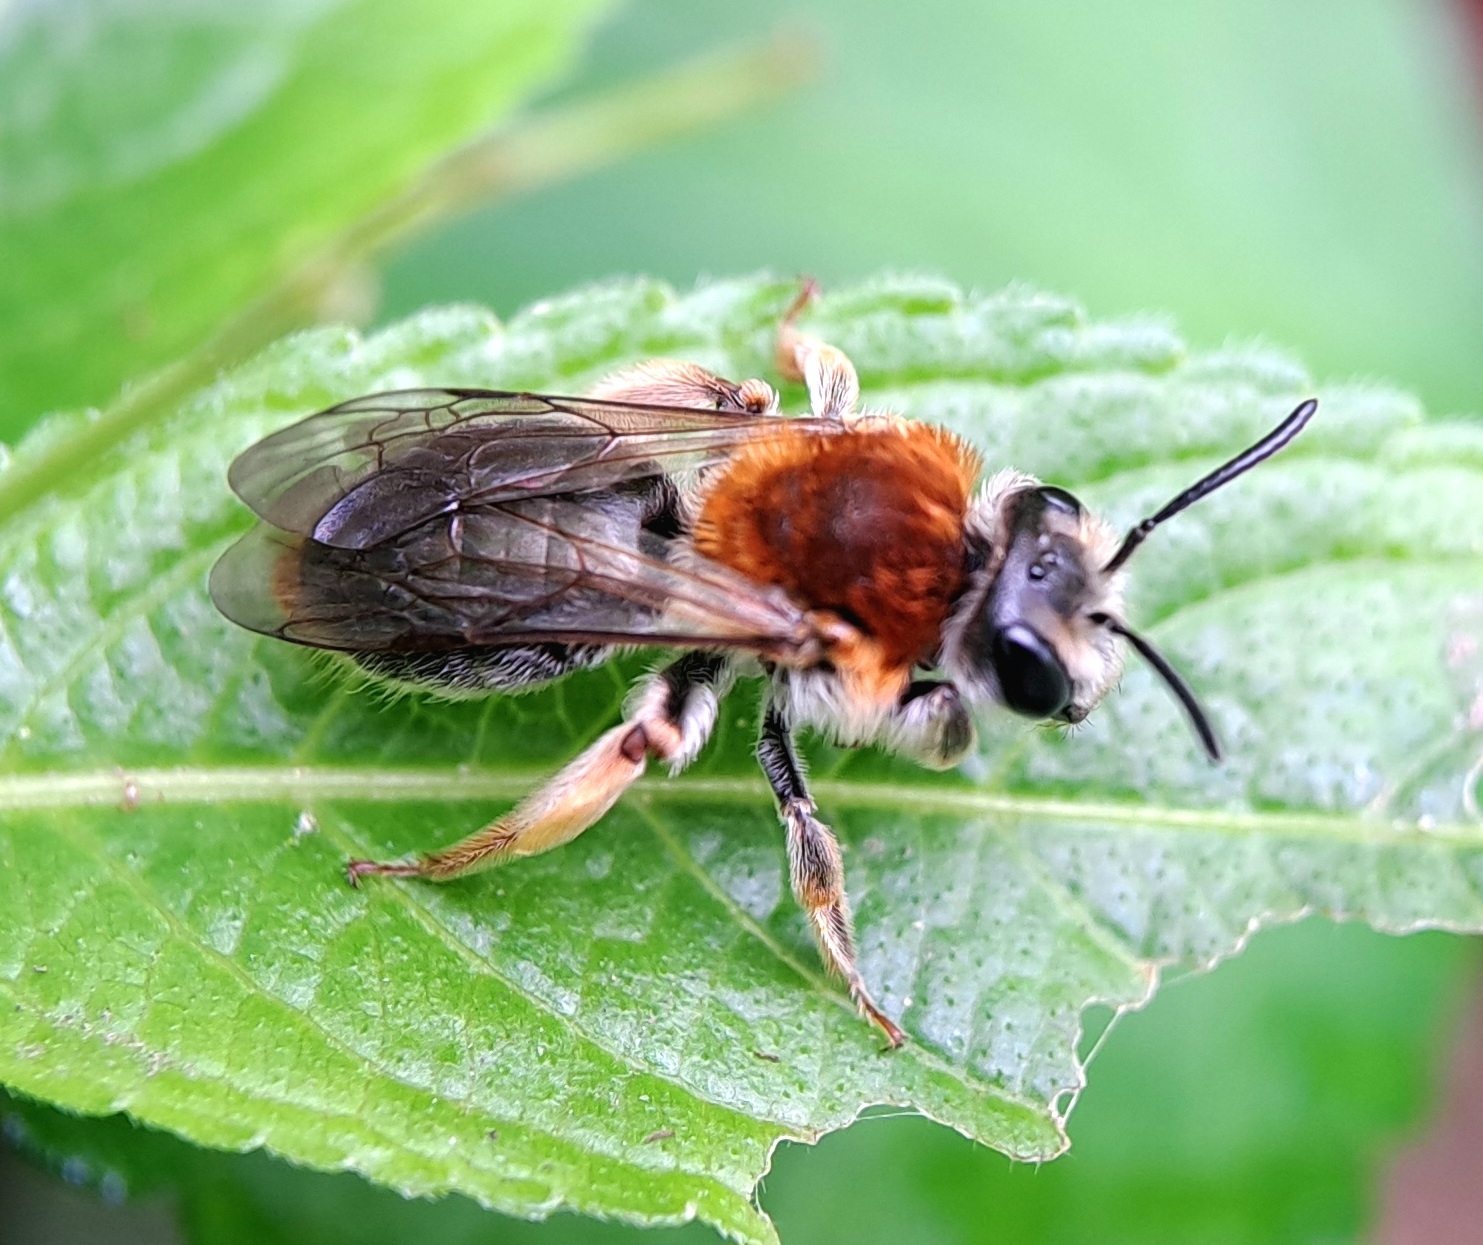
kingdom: Animalia
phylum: Arthropoda
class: Insecta
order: Hymenoptera
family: Andrenidae
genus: Andrena
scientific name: Andrena haemorrhoa
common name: Early mining bee
